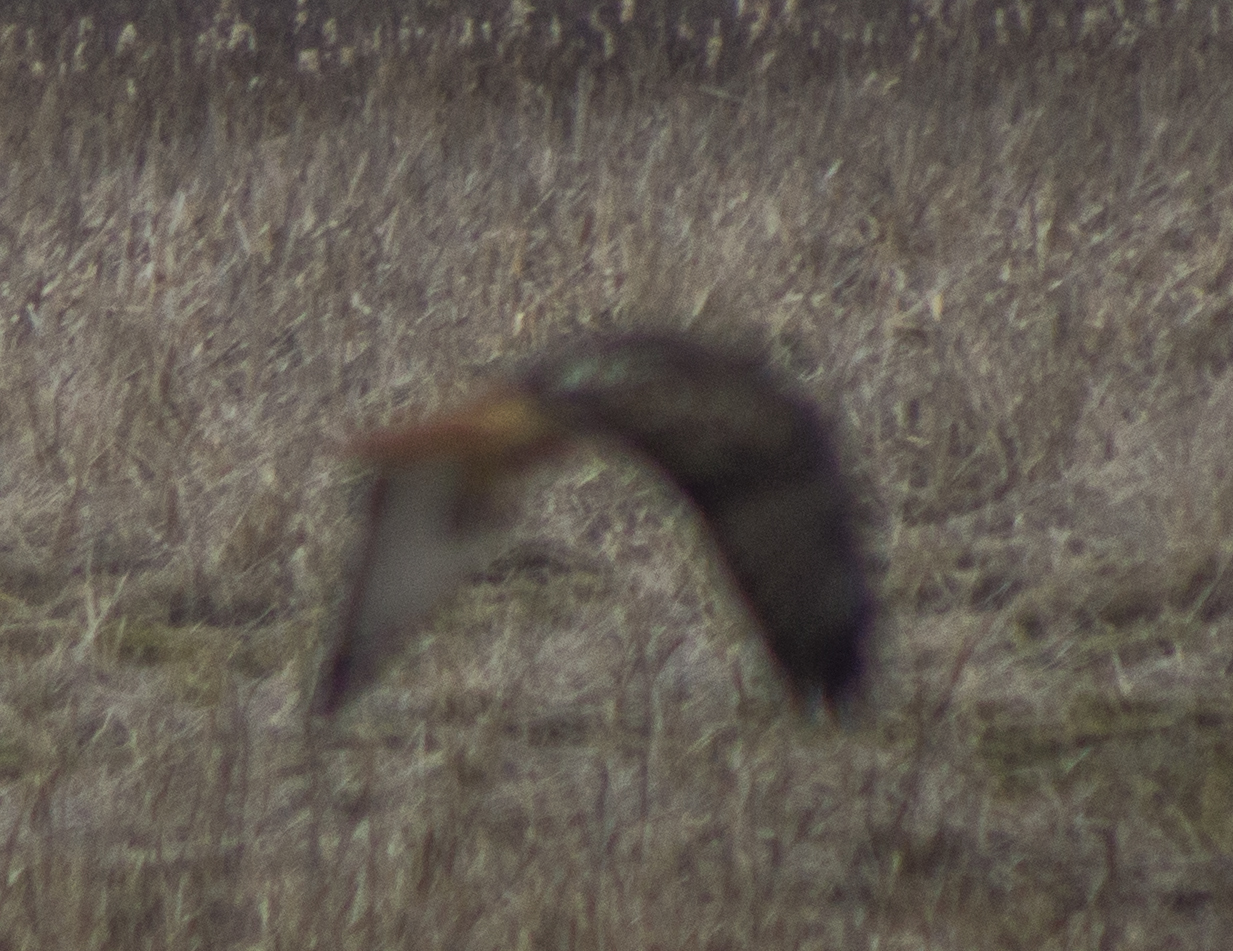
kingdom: Animalia
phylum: Chordata
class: Aves
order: Accipitriformes
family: Accipitridae
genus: Buteo
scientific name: Buteo jamaicensis
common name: Red-tailed hawk
